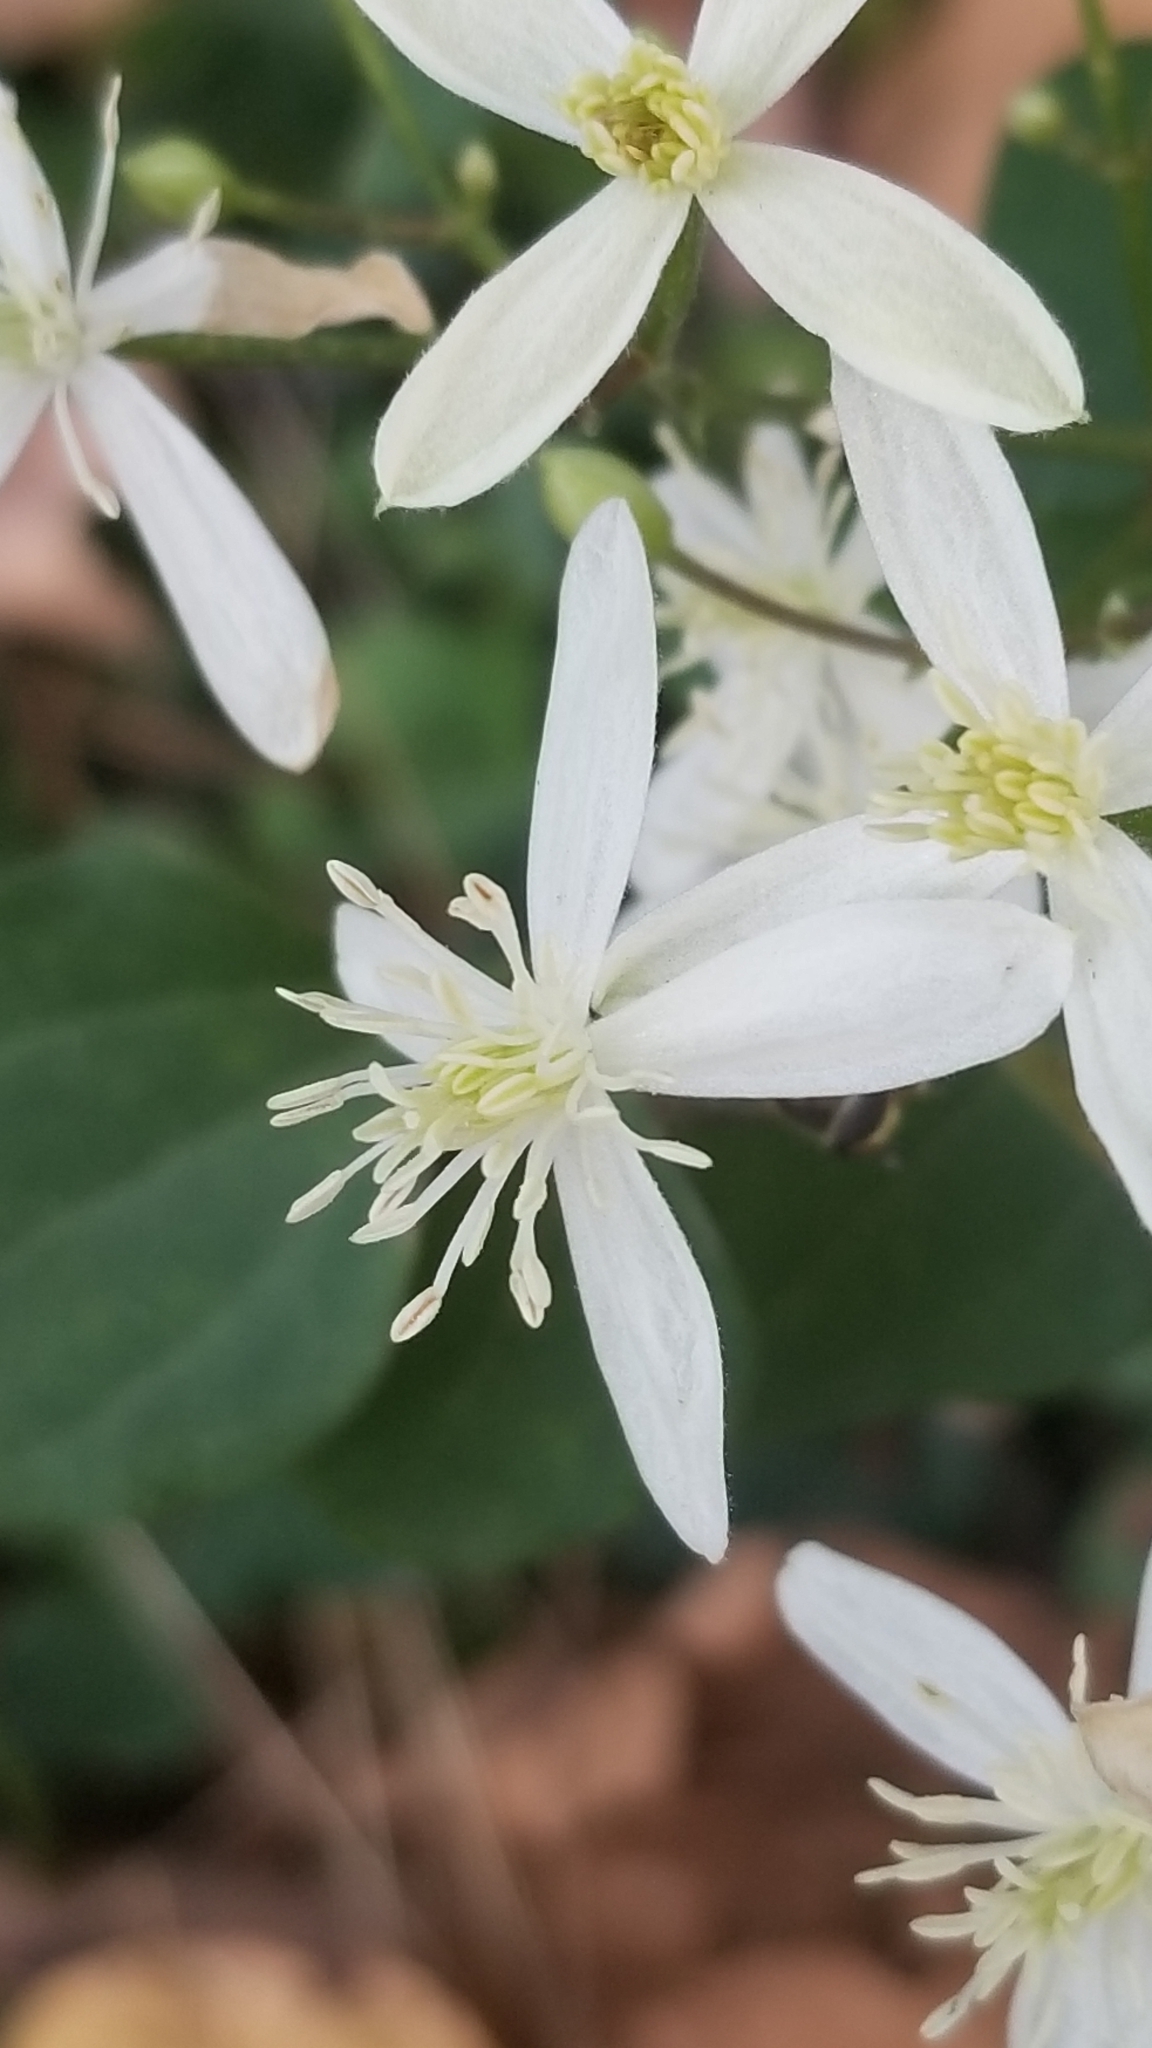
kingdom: Plantae
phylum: Tracheophyta
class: Magnoliopsida
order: Ranunculales
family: Ranunculaceae
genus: Clematis
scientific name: Clematis terniflora
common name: Sweet autumn clematis
